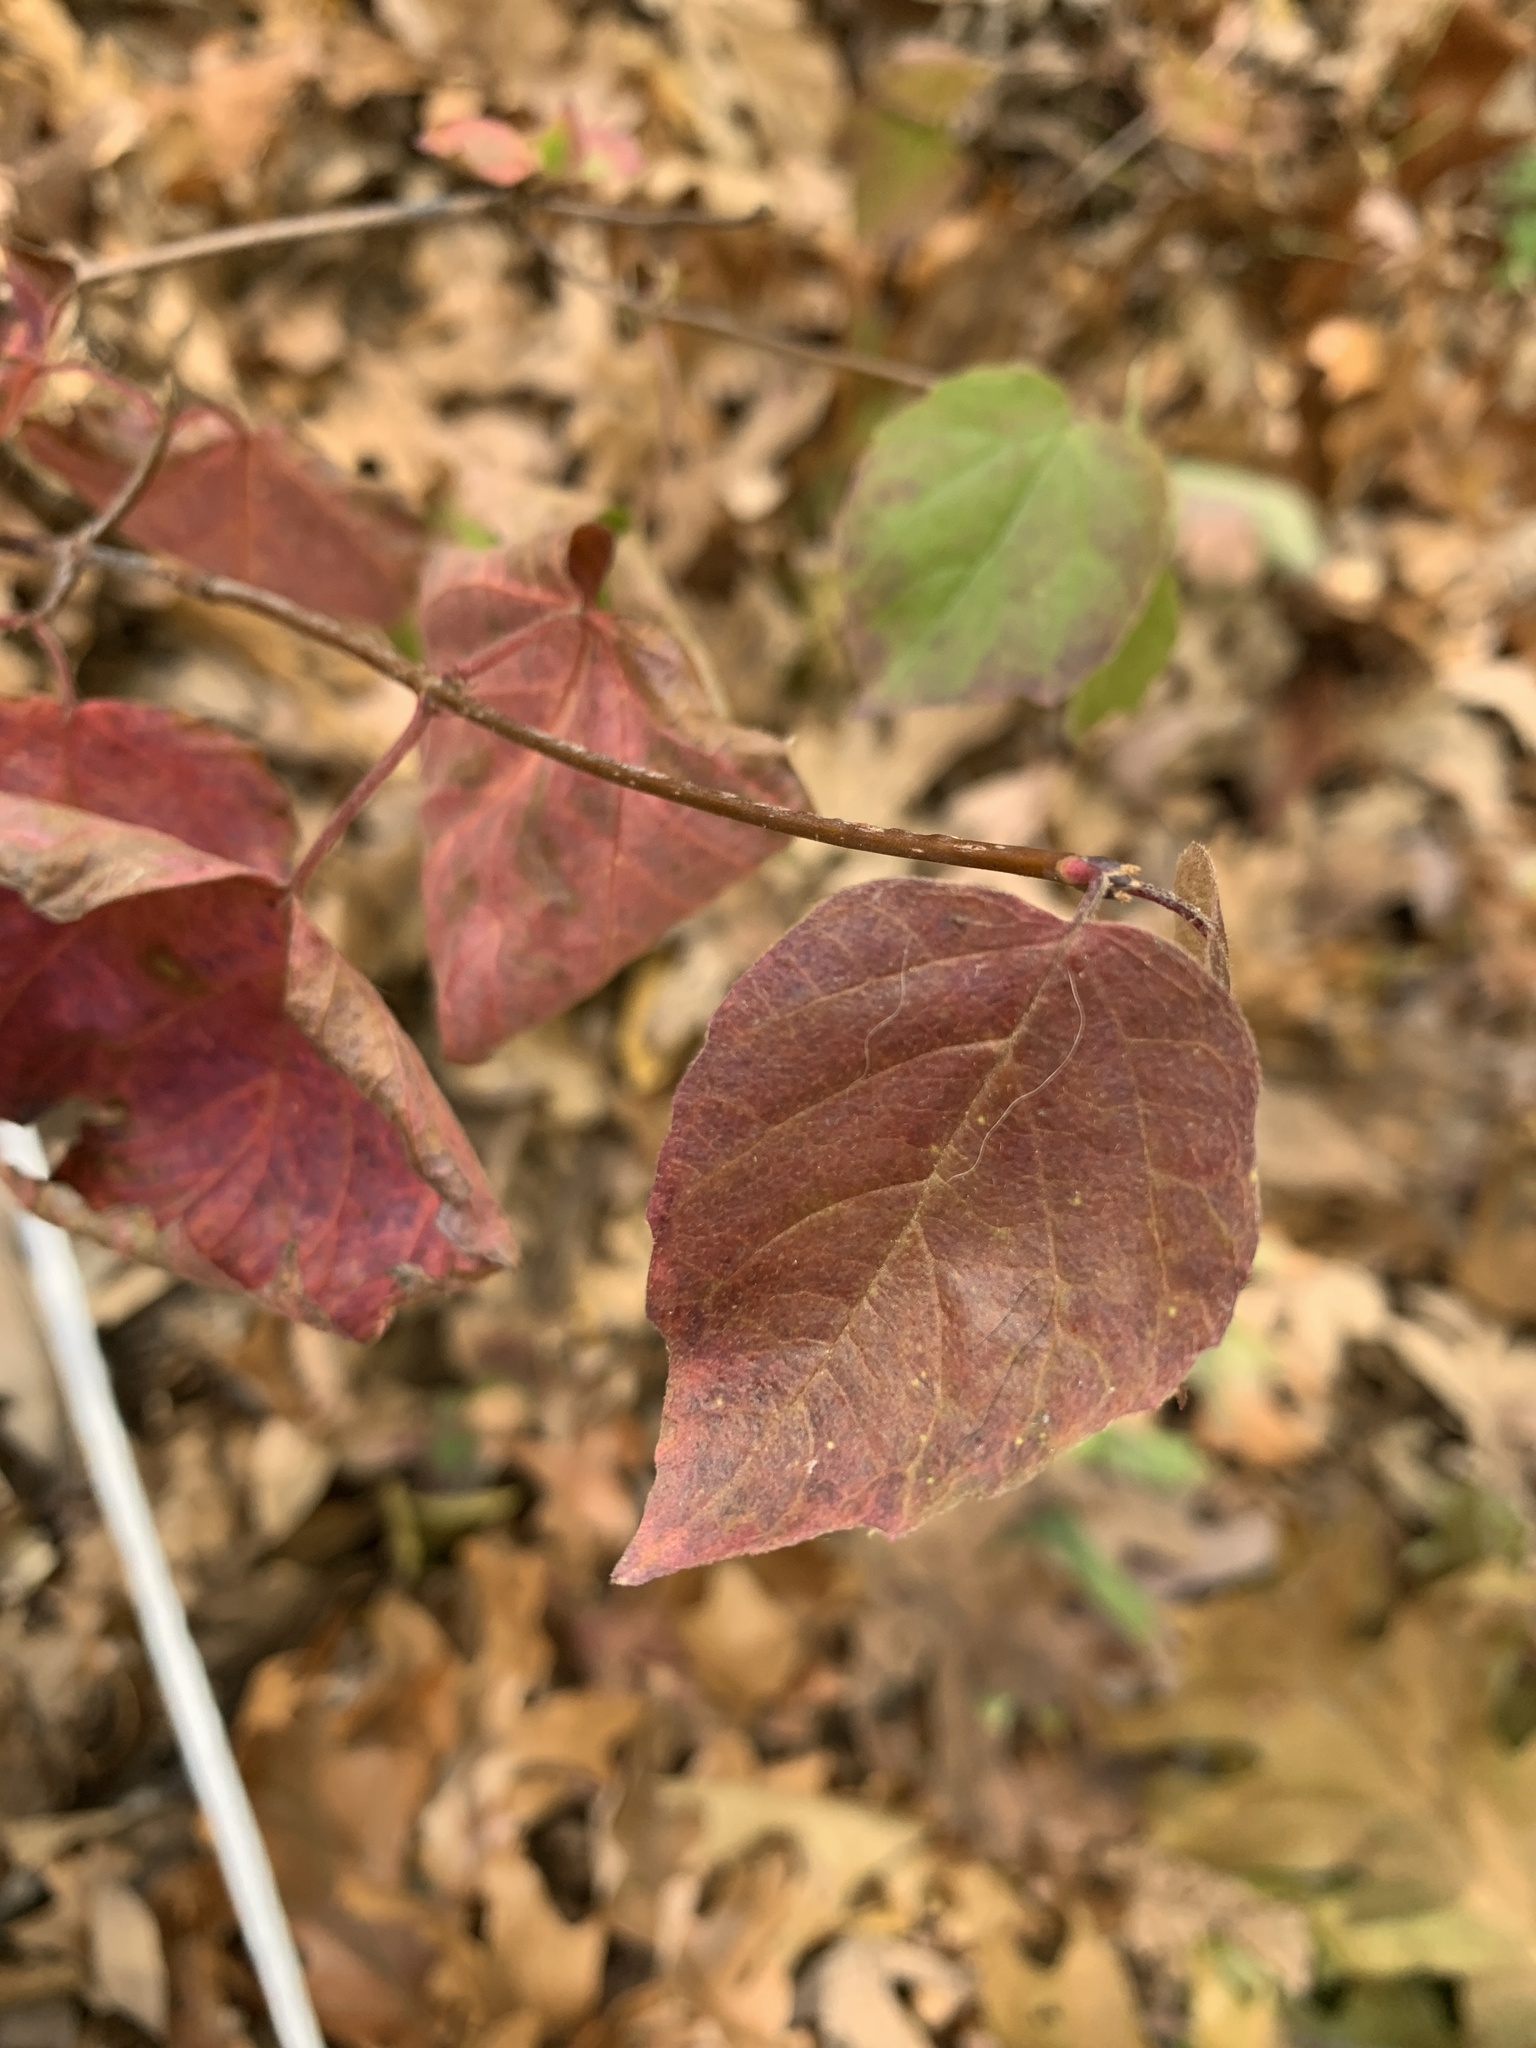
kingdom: Plantae
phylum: Tracheophyta
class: Magnoliopsida
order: Dipsacales
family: Viburnaceae
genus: Viburnum
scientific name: Viburnum acerifolium
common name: Dockmackie
